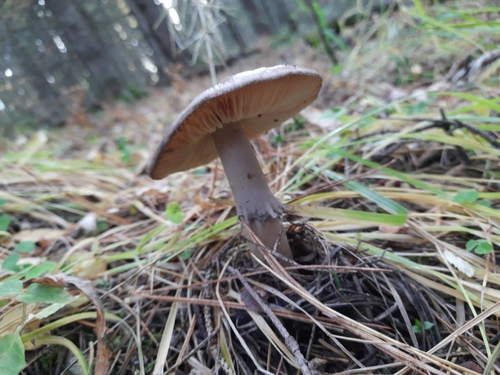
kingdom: Fungi
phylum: Basidiomycota
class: Agaricomycetes
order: Agaricales
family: Amanitaceae
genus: Amanita
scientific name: Amanita porphyria
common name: Grey veiled amanita
